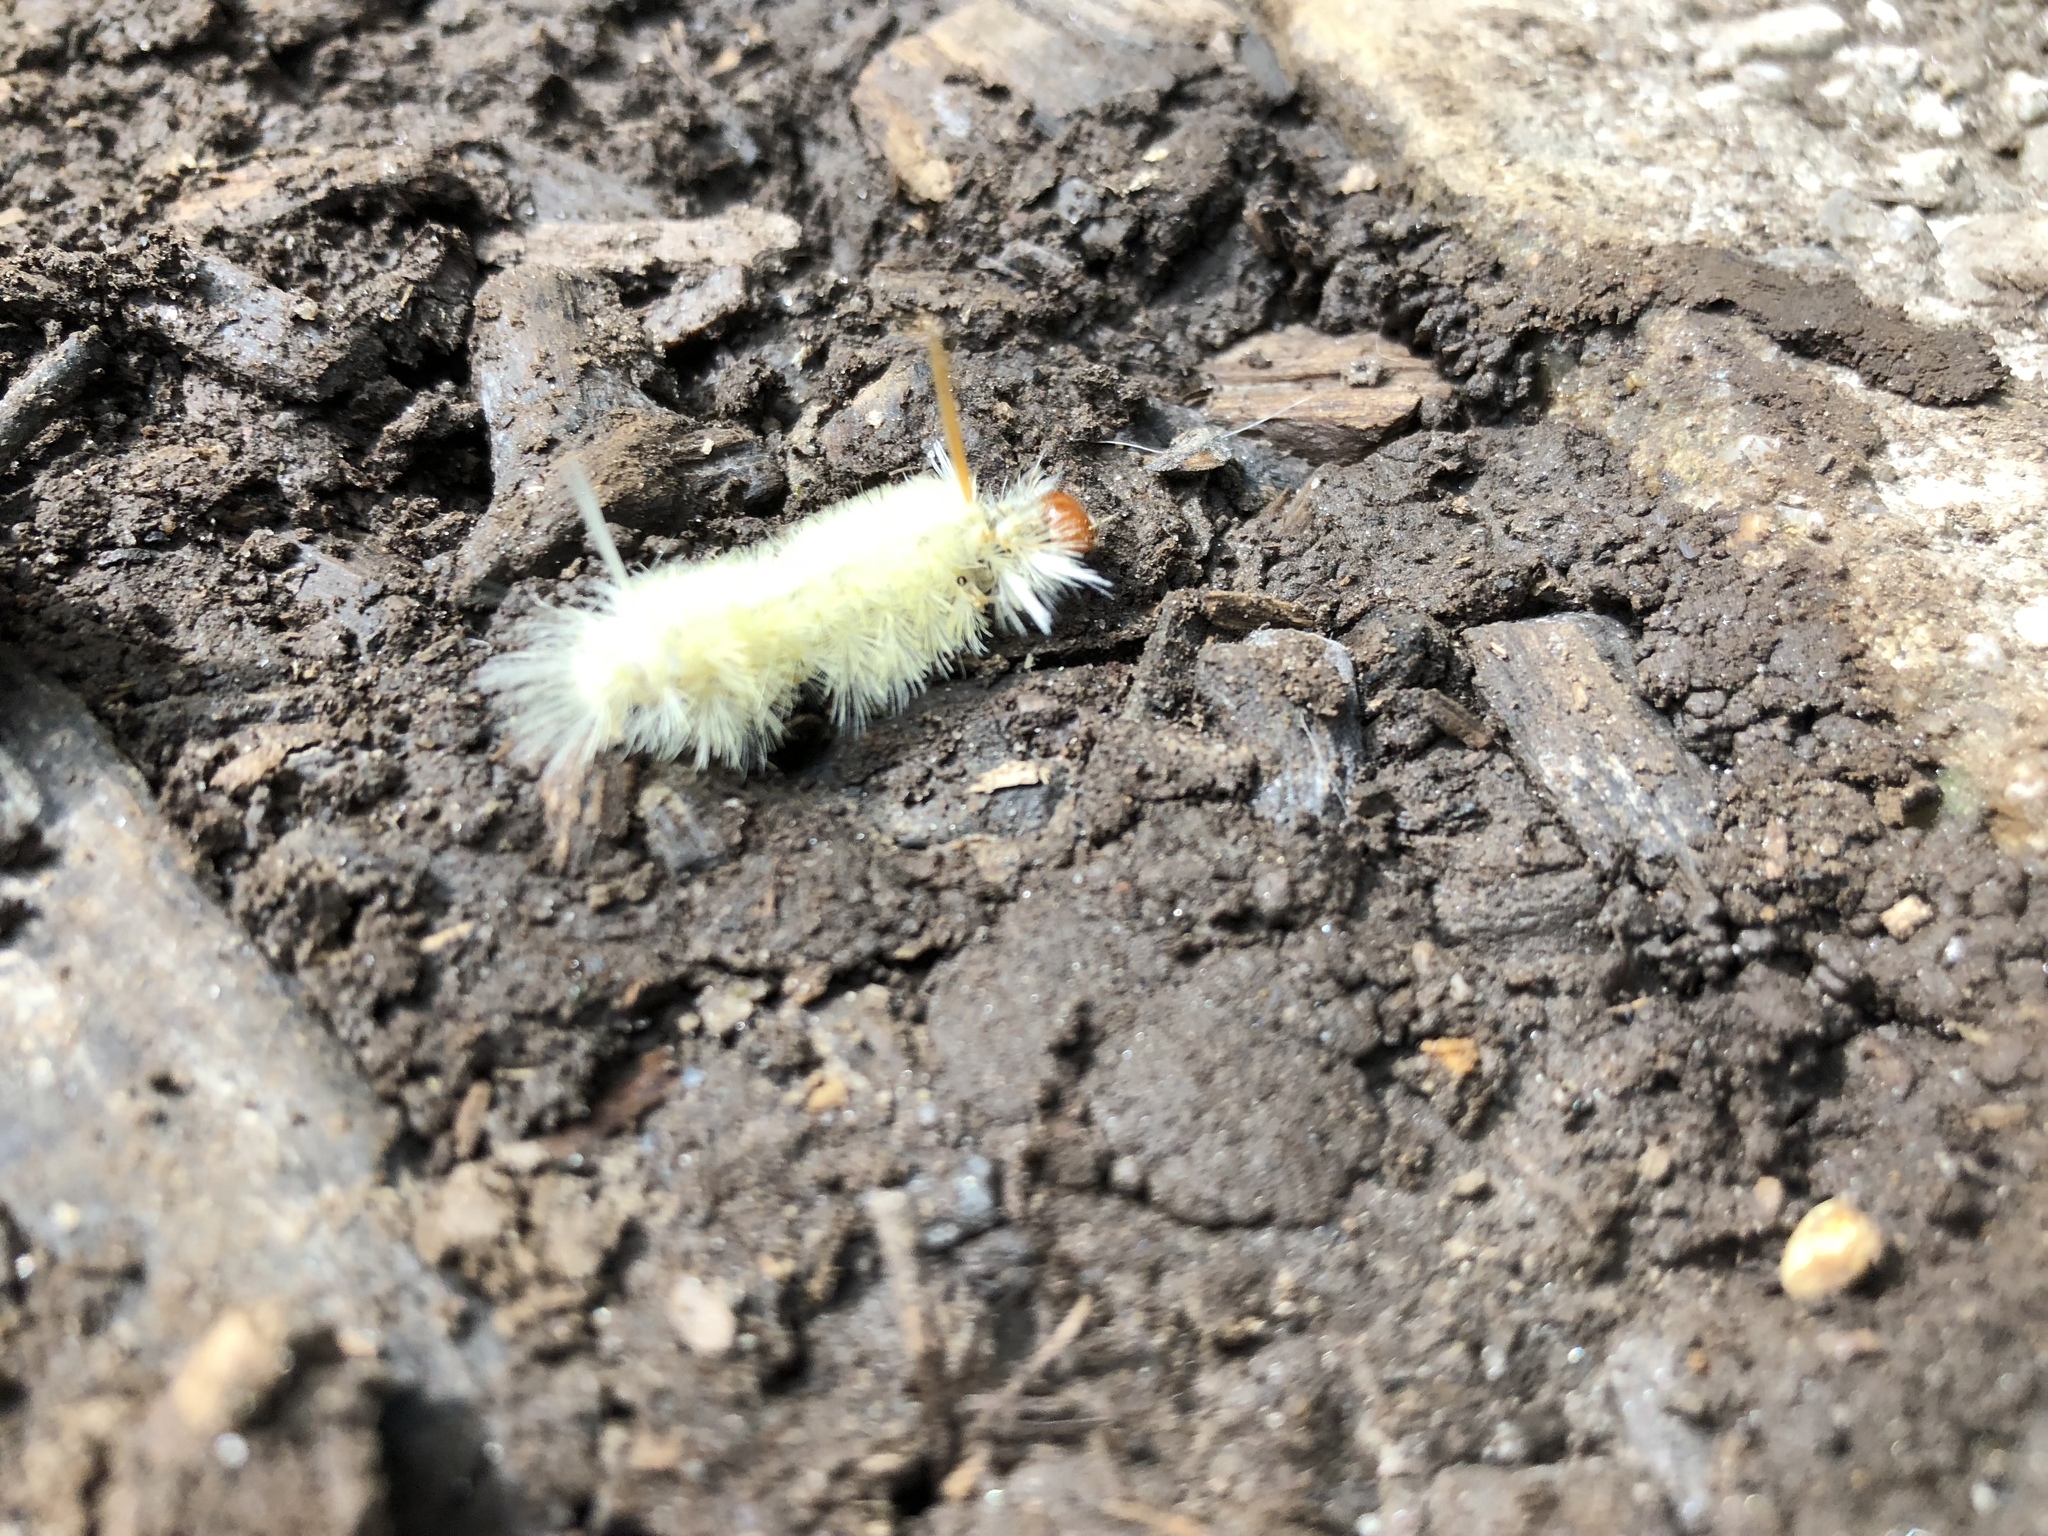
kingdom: Animalia
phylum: Arthropoda
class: Insecta
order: Lepidoptera
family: Erebidae
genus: Halysidota
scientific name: Halysidota harrisii
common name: Sycamore tussock moth
